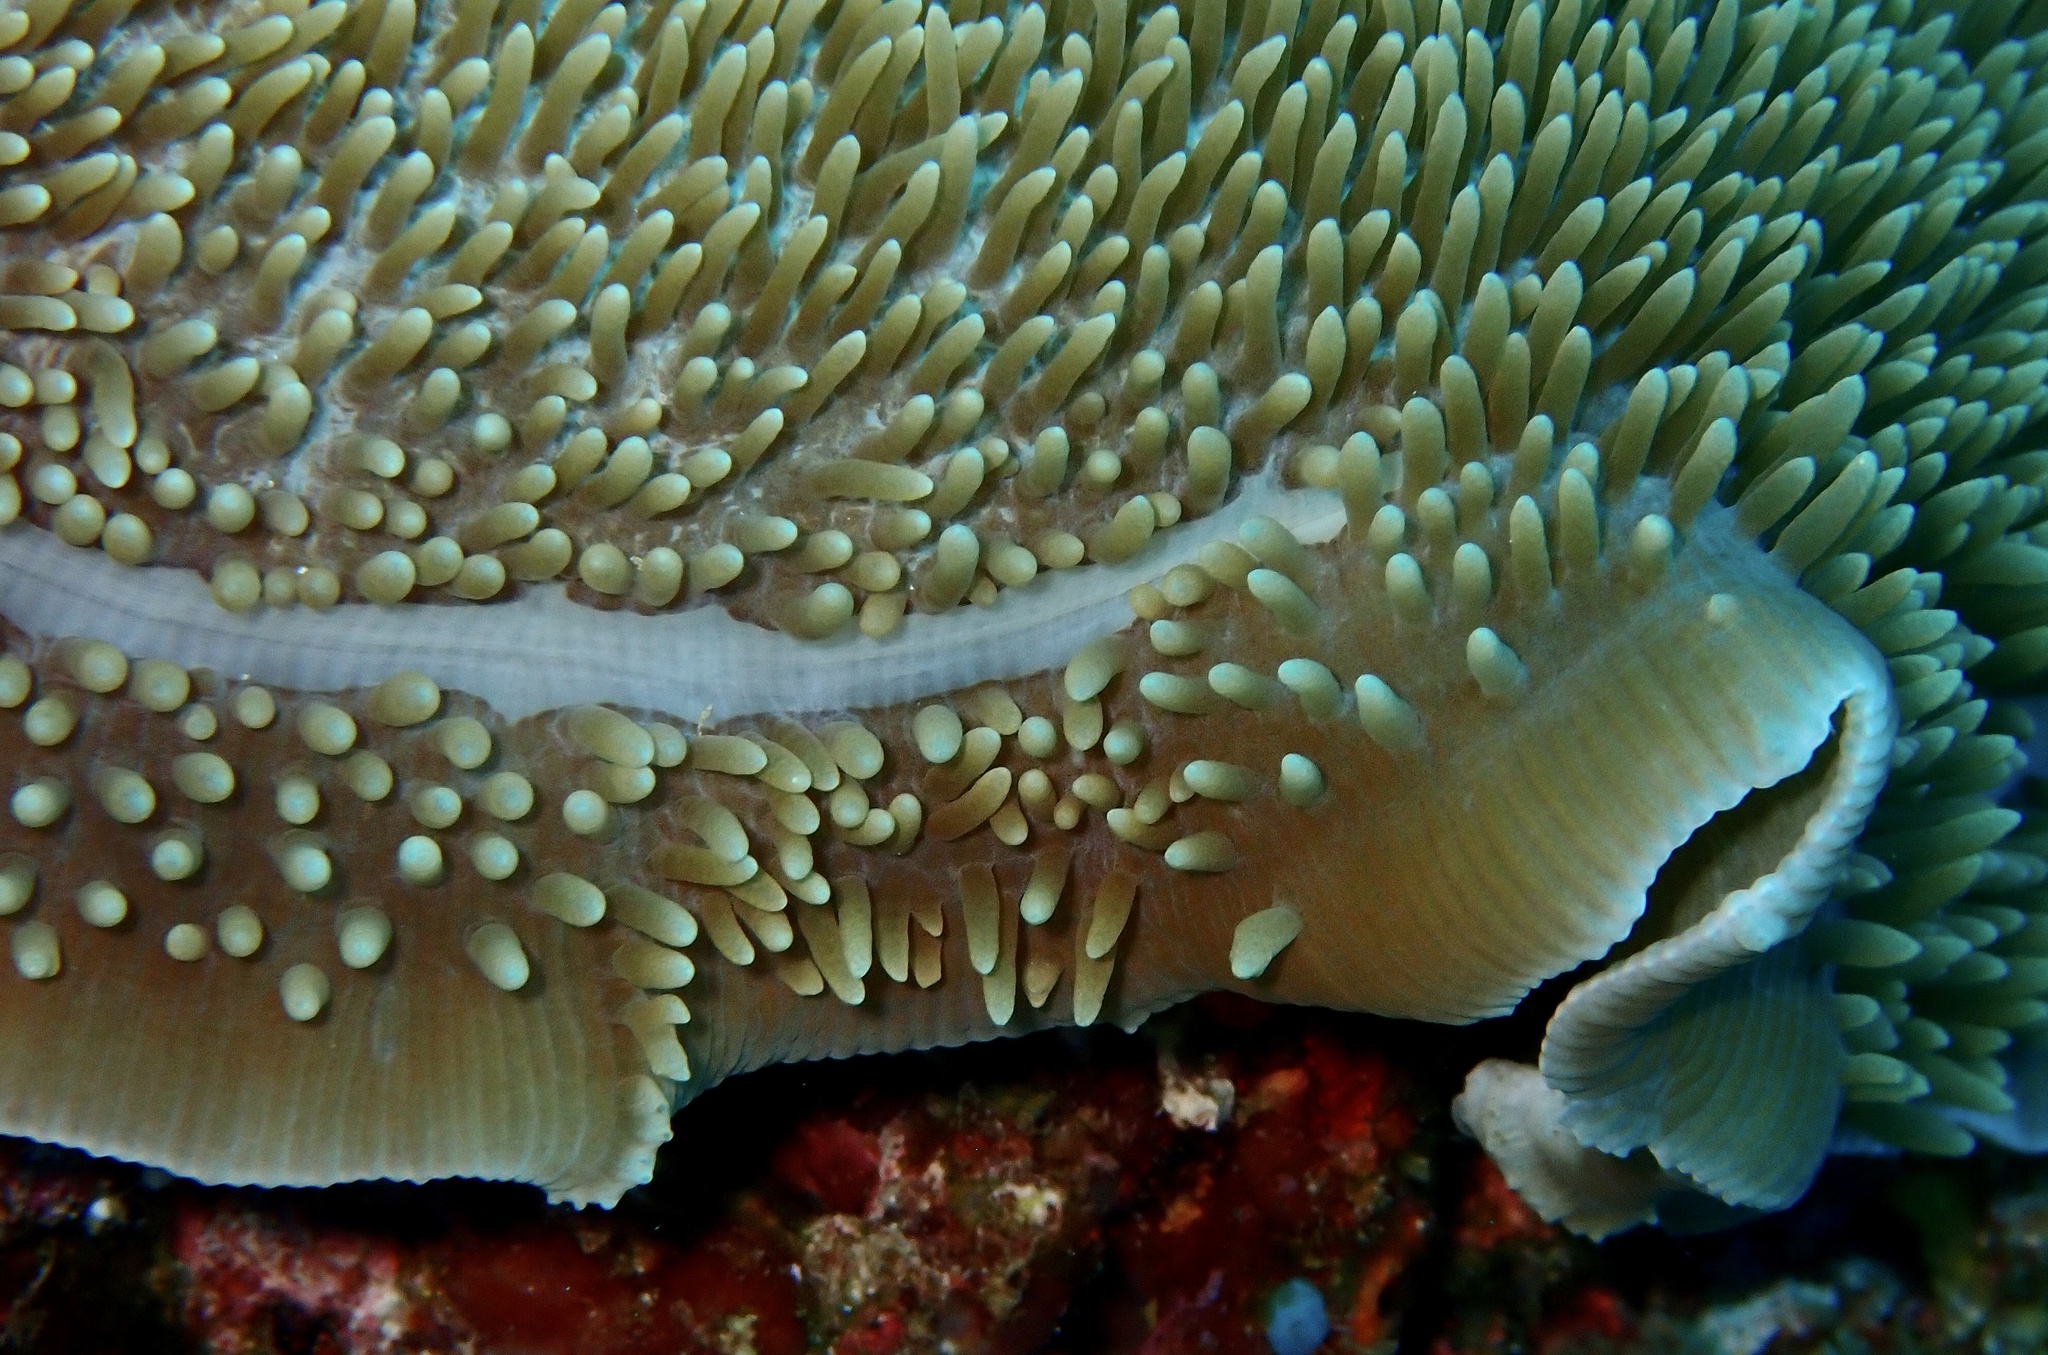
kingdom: Animalia
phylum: Cnidaria
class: Anthozoa
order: Corallimorpharia
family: Discosomidae
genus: Amplexidiscus
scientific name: Amplexidiscus fenestrafer
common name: Elephant ear anemone
